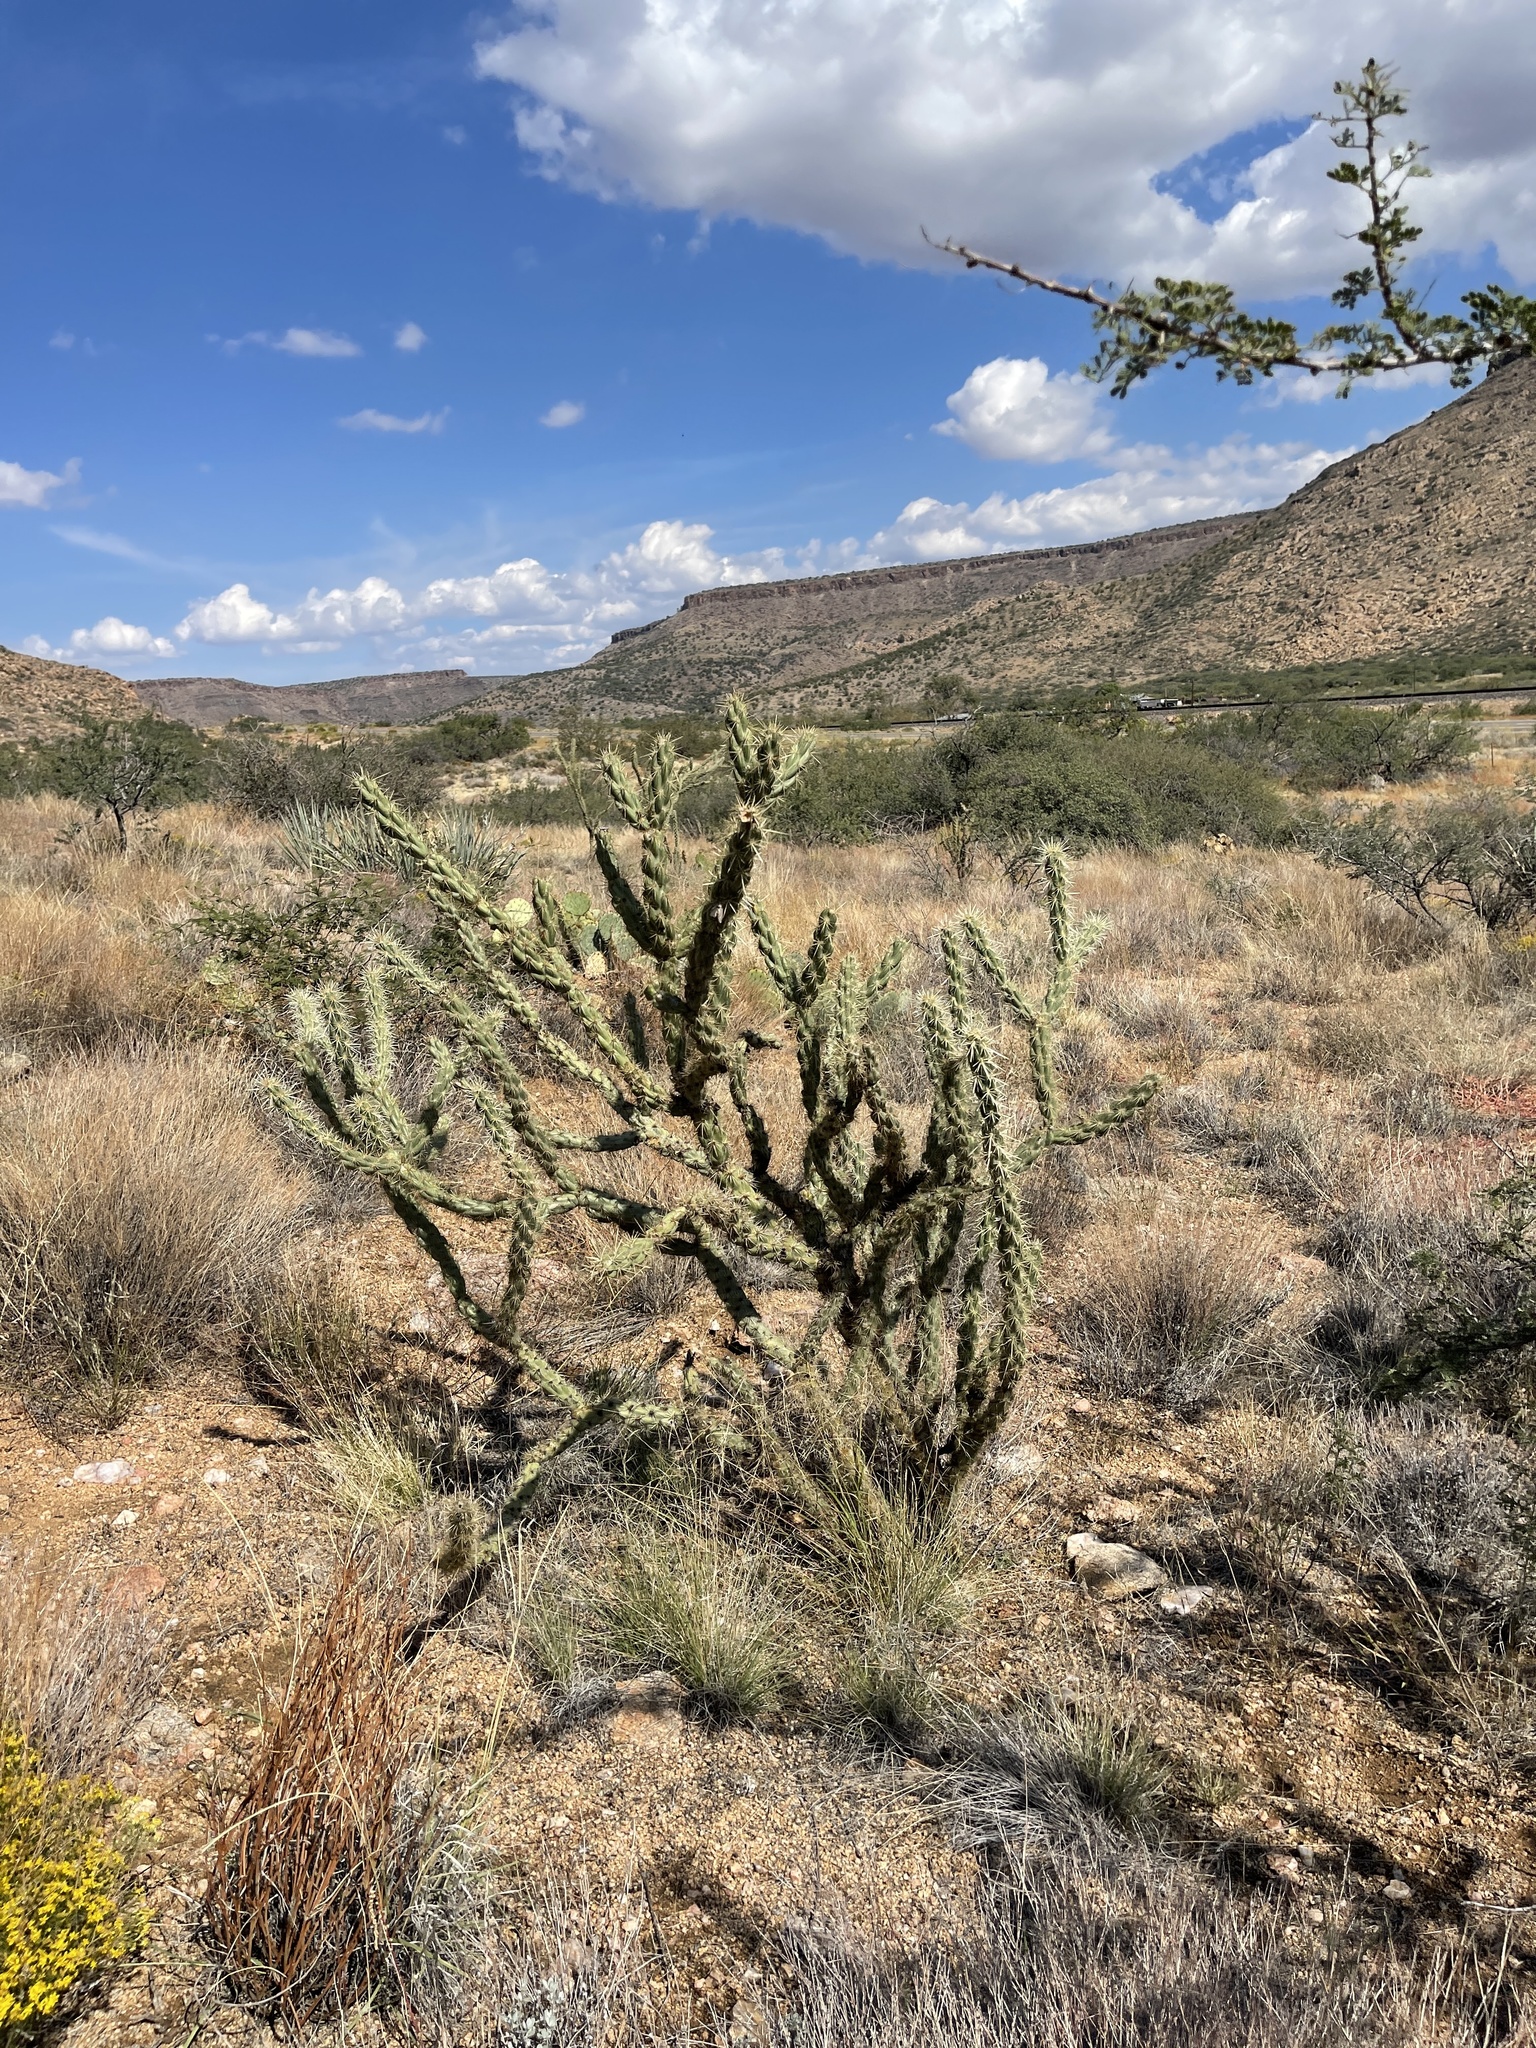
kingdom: Plantae
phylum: Tracheophyta
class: Magnoliopsida
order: Caryophyllales
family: Cactaceae
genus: Cylindropuntia
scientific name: Cylindropuntia acanthocarpa
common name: Buckhorn cholla
